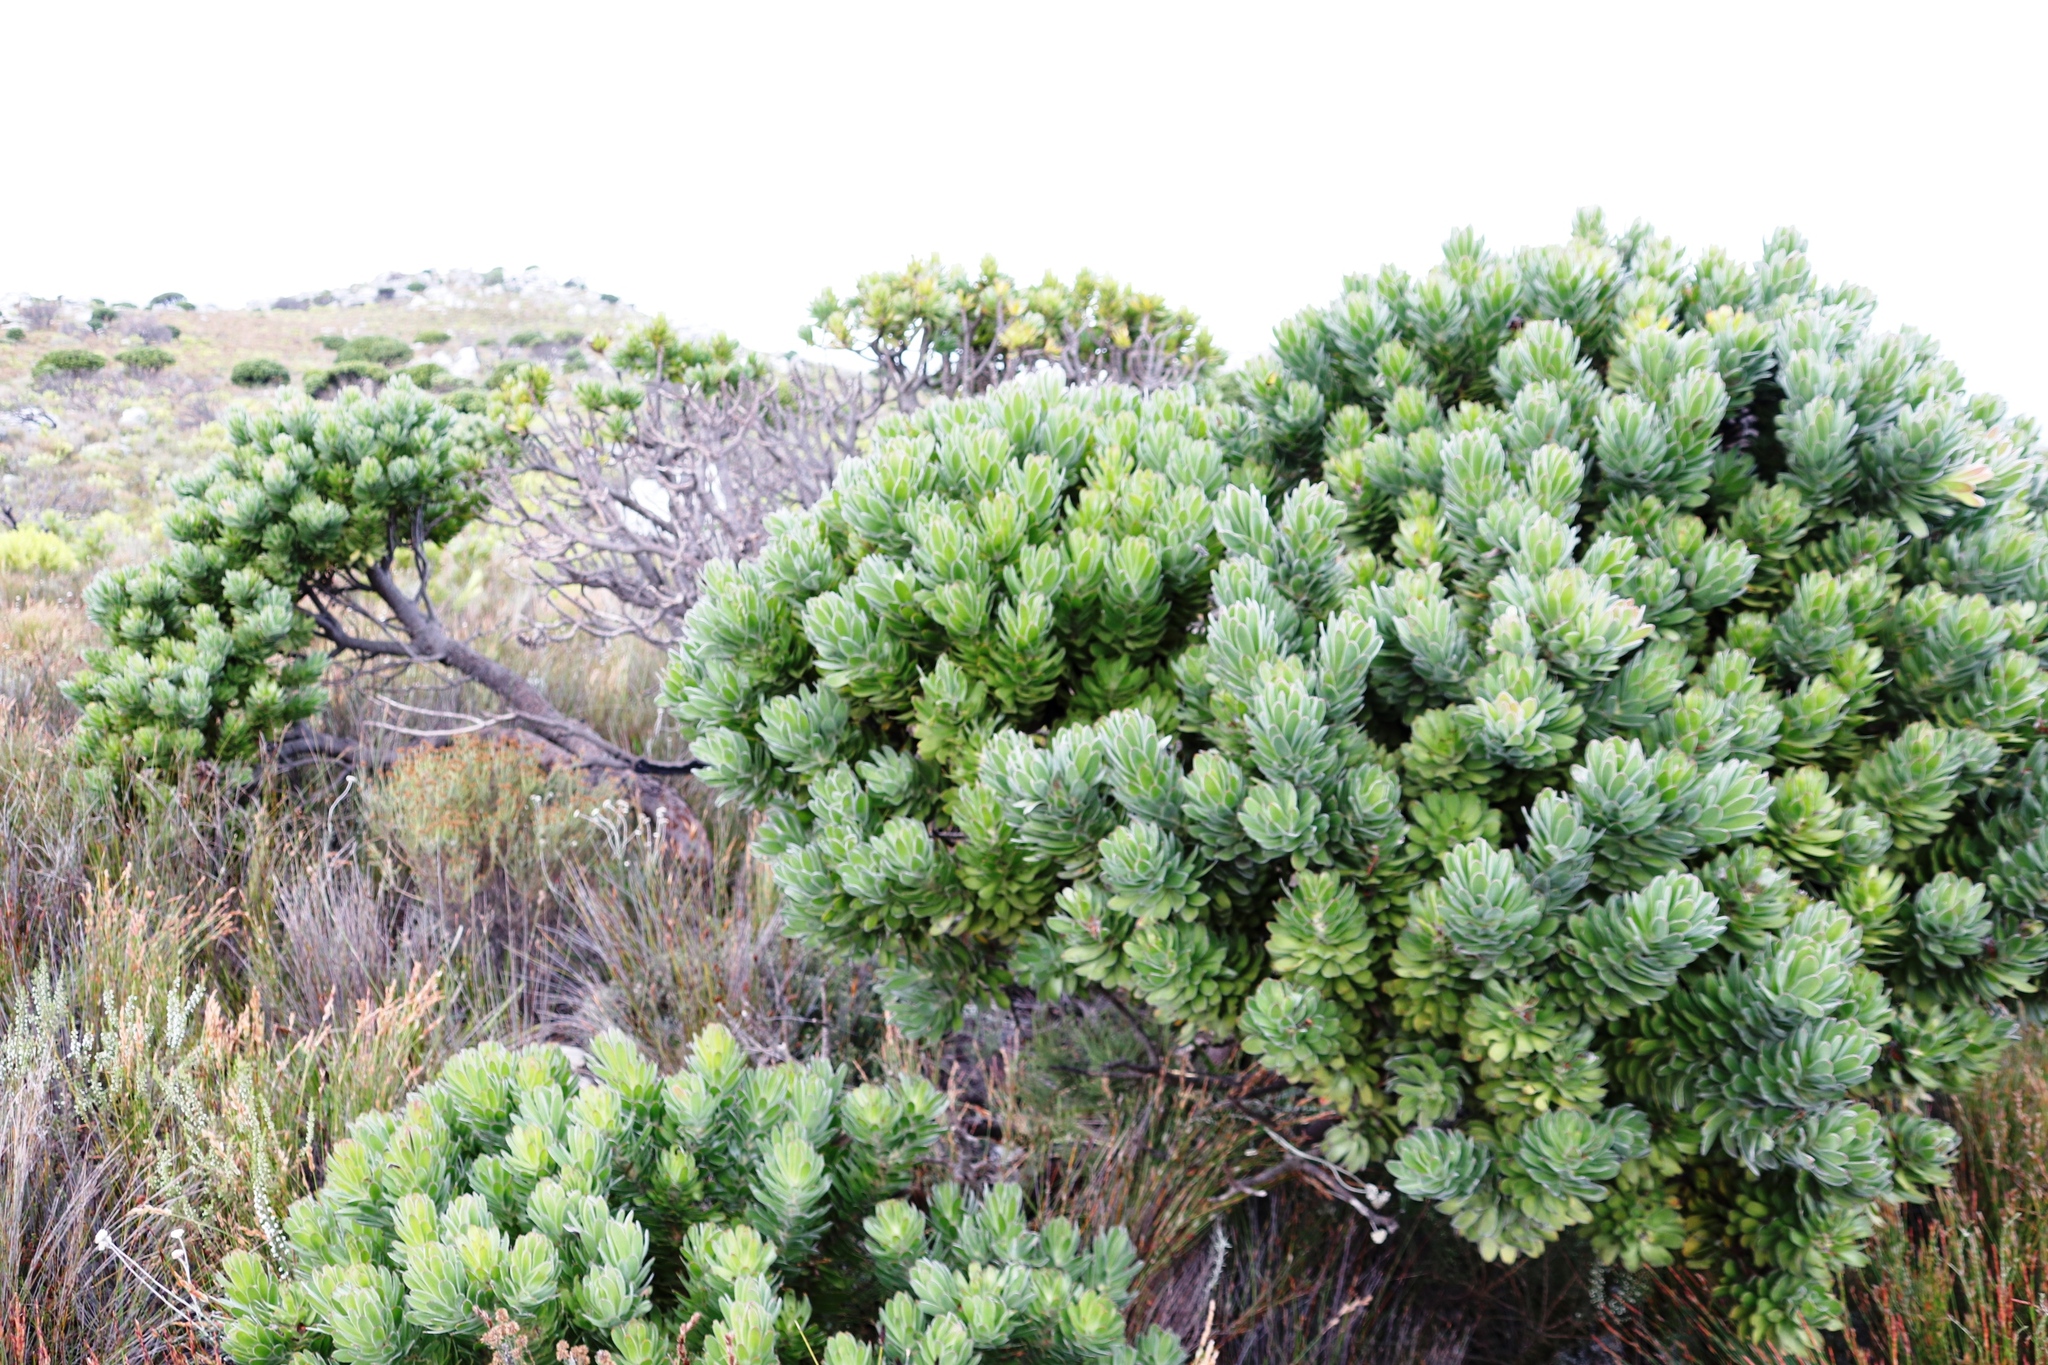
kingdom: Plantae
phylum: Tracheophyta
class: Magnoliopsida
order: Proteales
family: Proteaceae
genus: Mimetes
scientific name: Mimetes fimbriifolius
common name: Fringed bottlebrush
